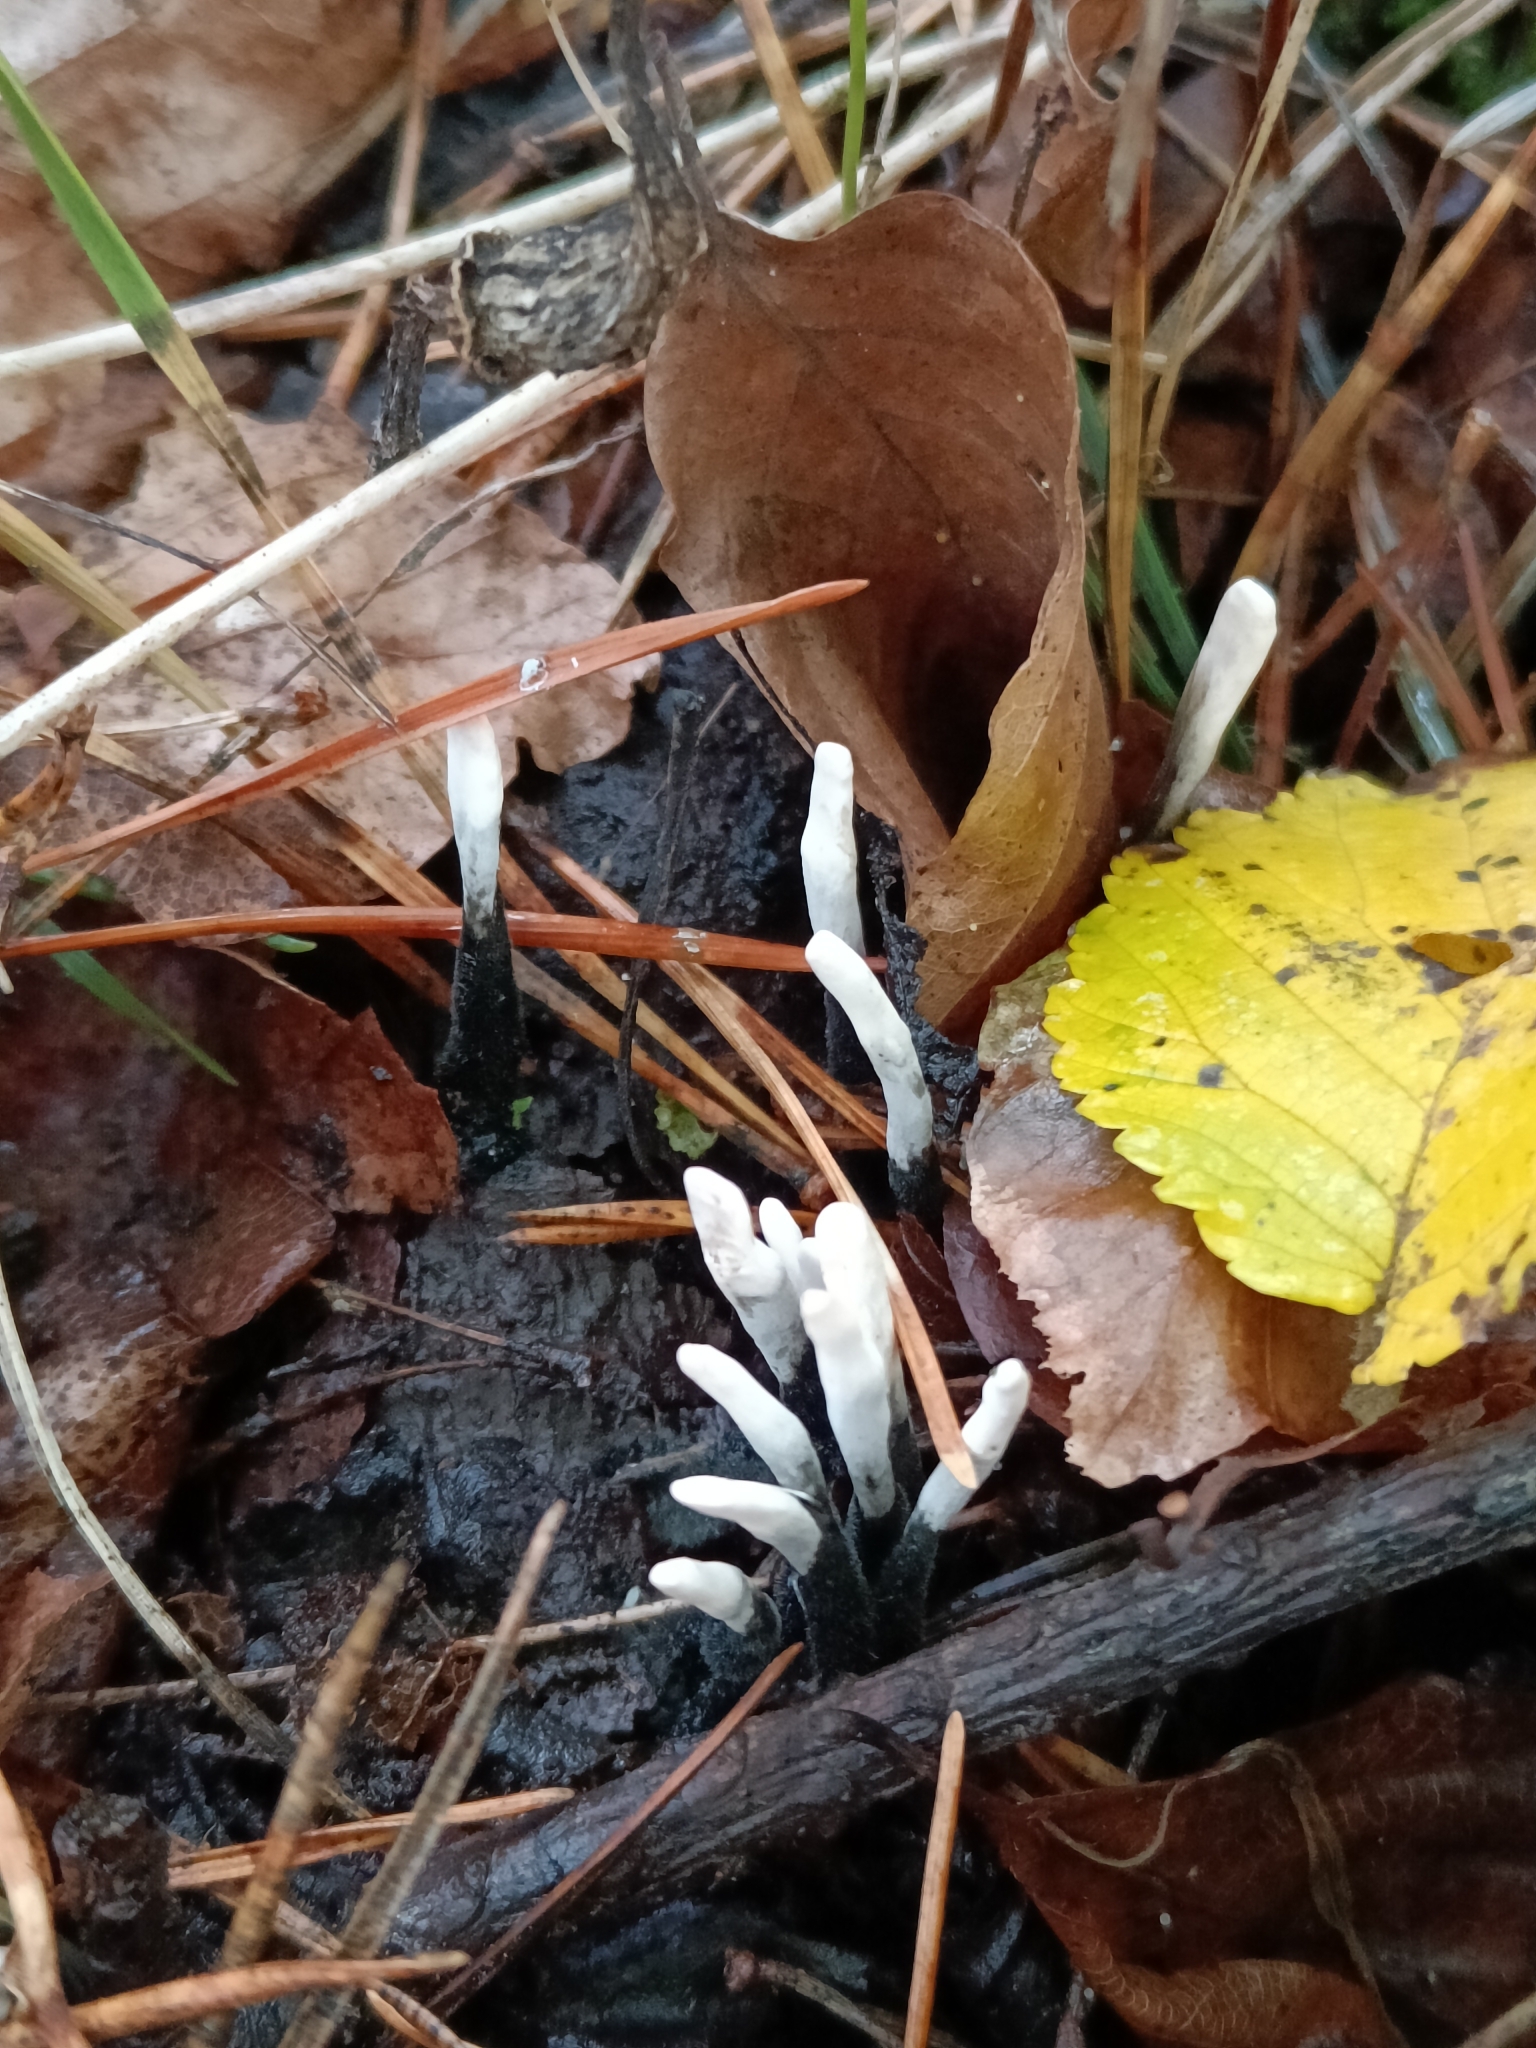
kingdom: Fungi
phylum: Ascomycota
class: Sordariomycetes
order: Xylariales
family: Xylariaceae
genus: Xylaria
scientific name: Xylaria hypoxylon
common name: Candle-snuff fungus
